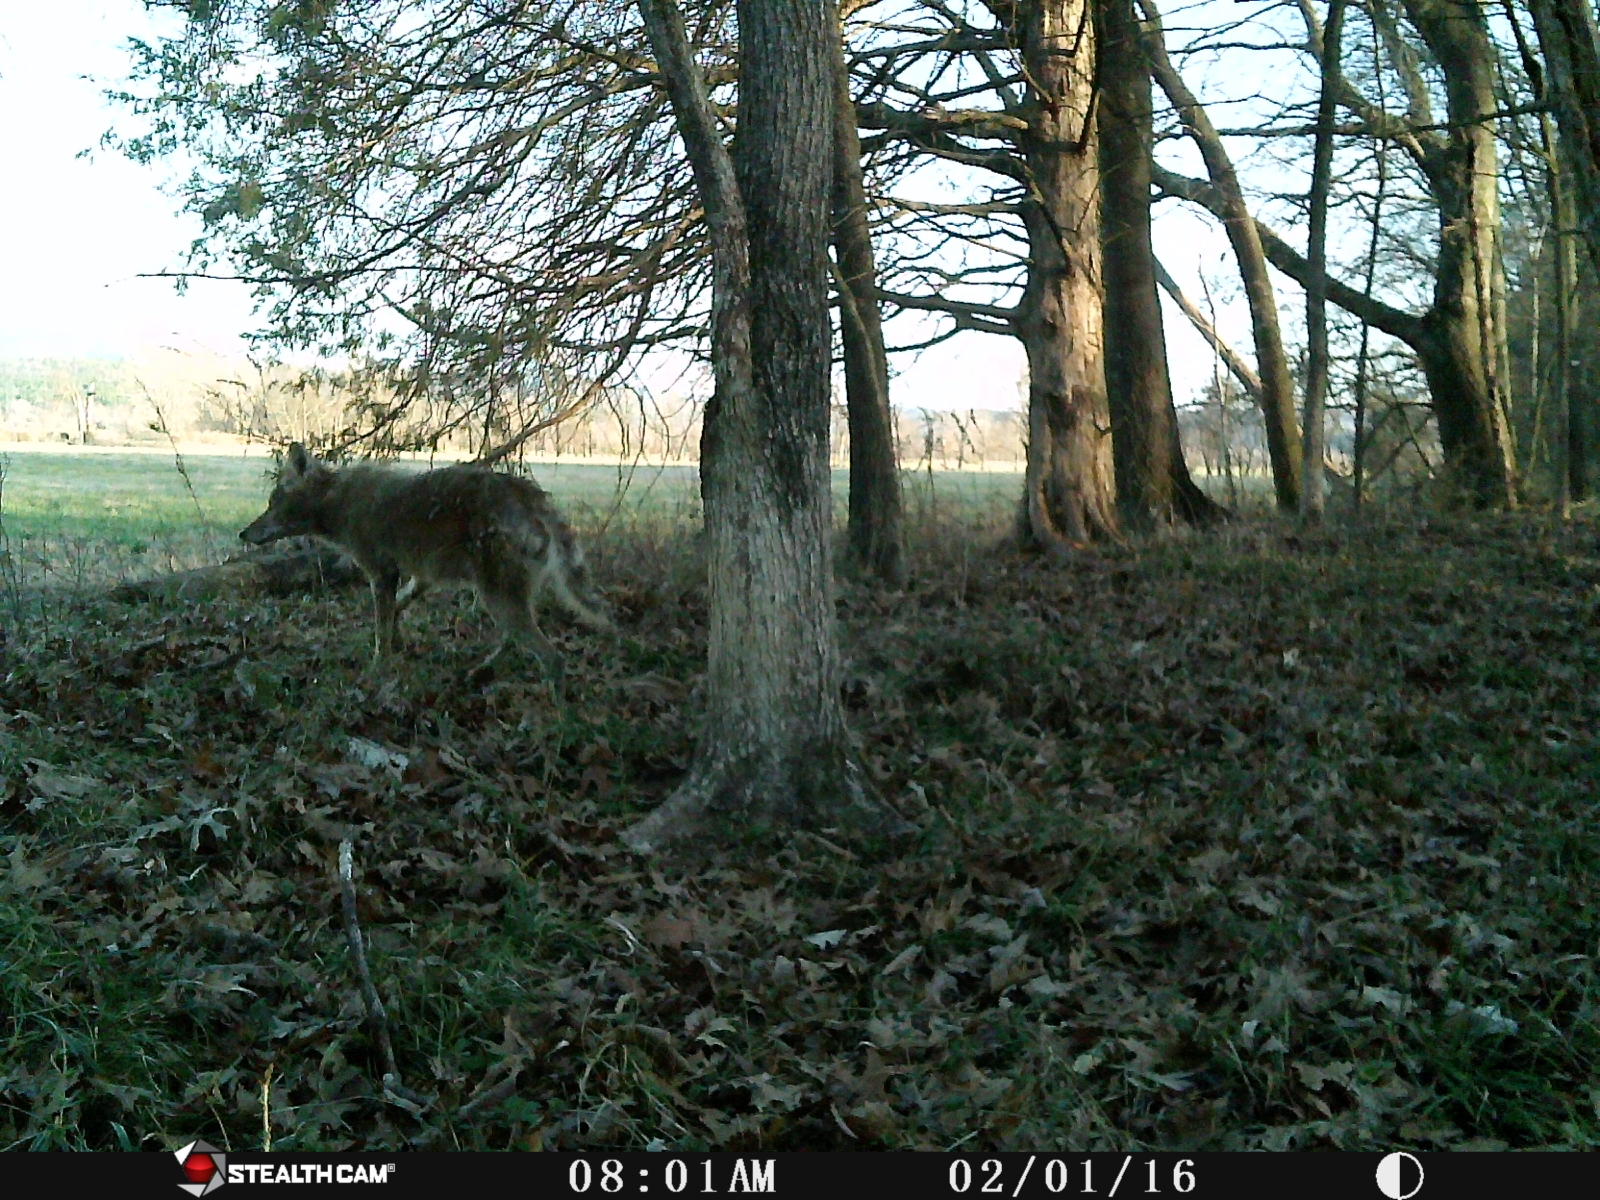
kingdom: Animalia
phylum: Chordata
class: Mammalia
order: Carnivora
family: Canidae
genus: Canis
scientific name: Canis latrans
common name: Coyote
